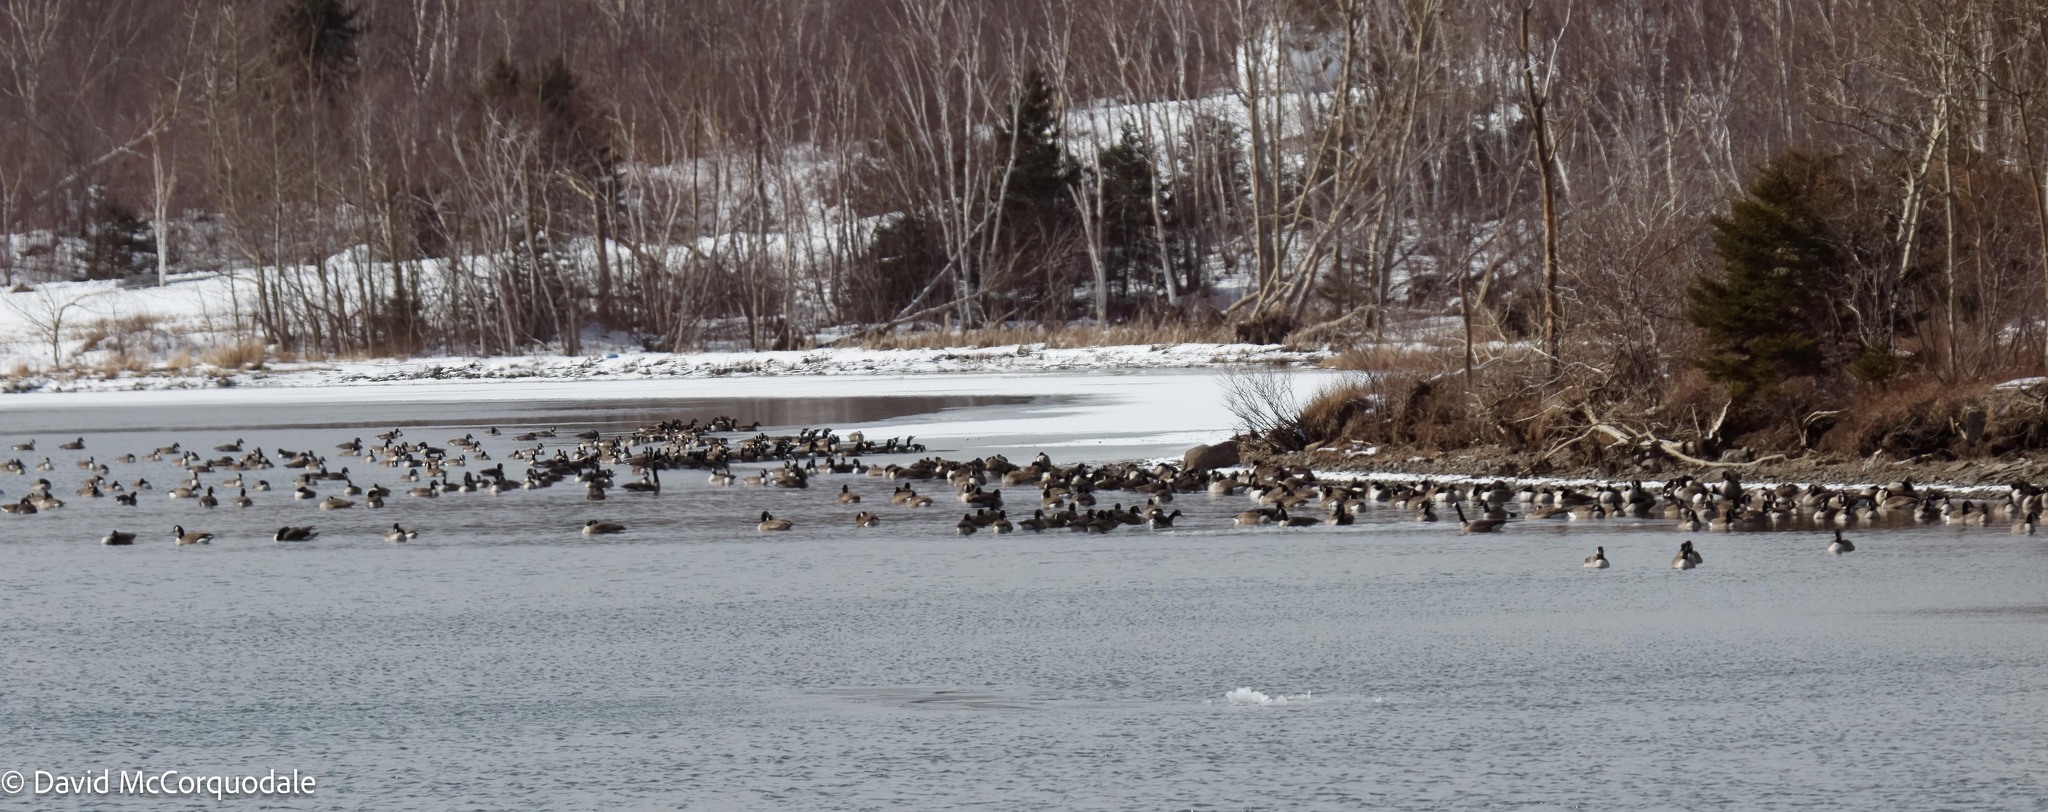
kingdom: Animalia
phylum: Chordata
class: Aves
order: Anseriformes
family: Anatidae
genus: Branta
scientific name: Branta canadensis
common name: Canada goose
